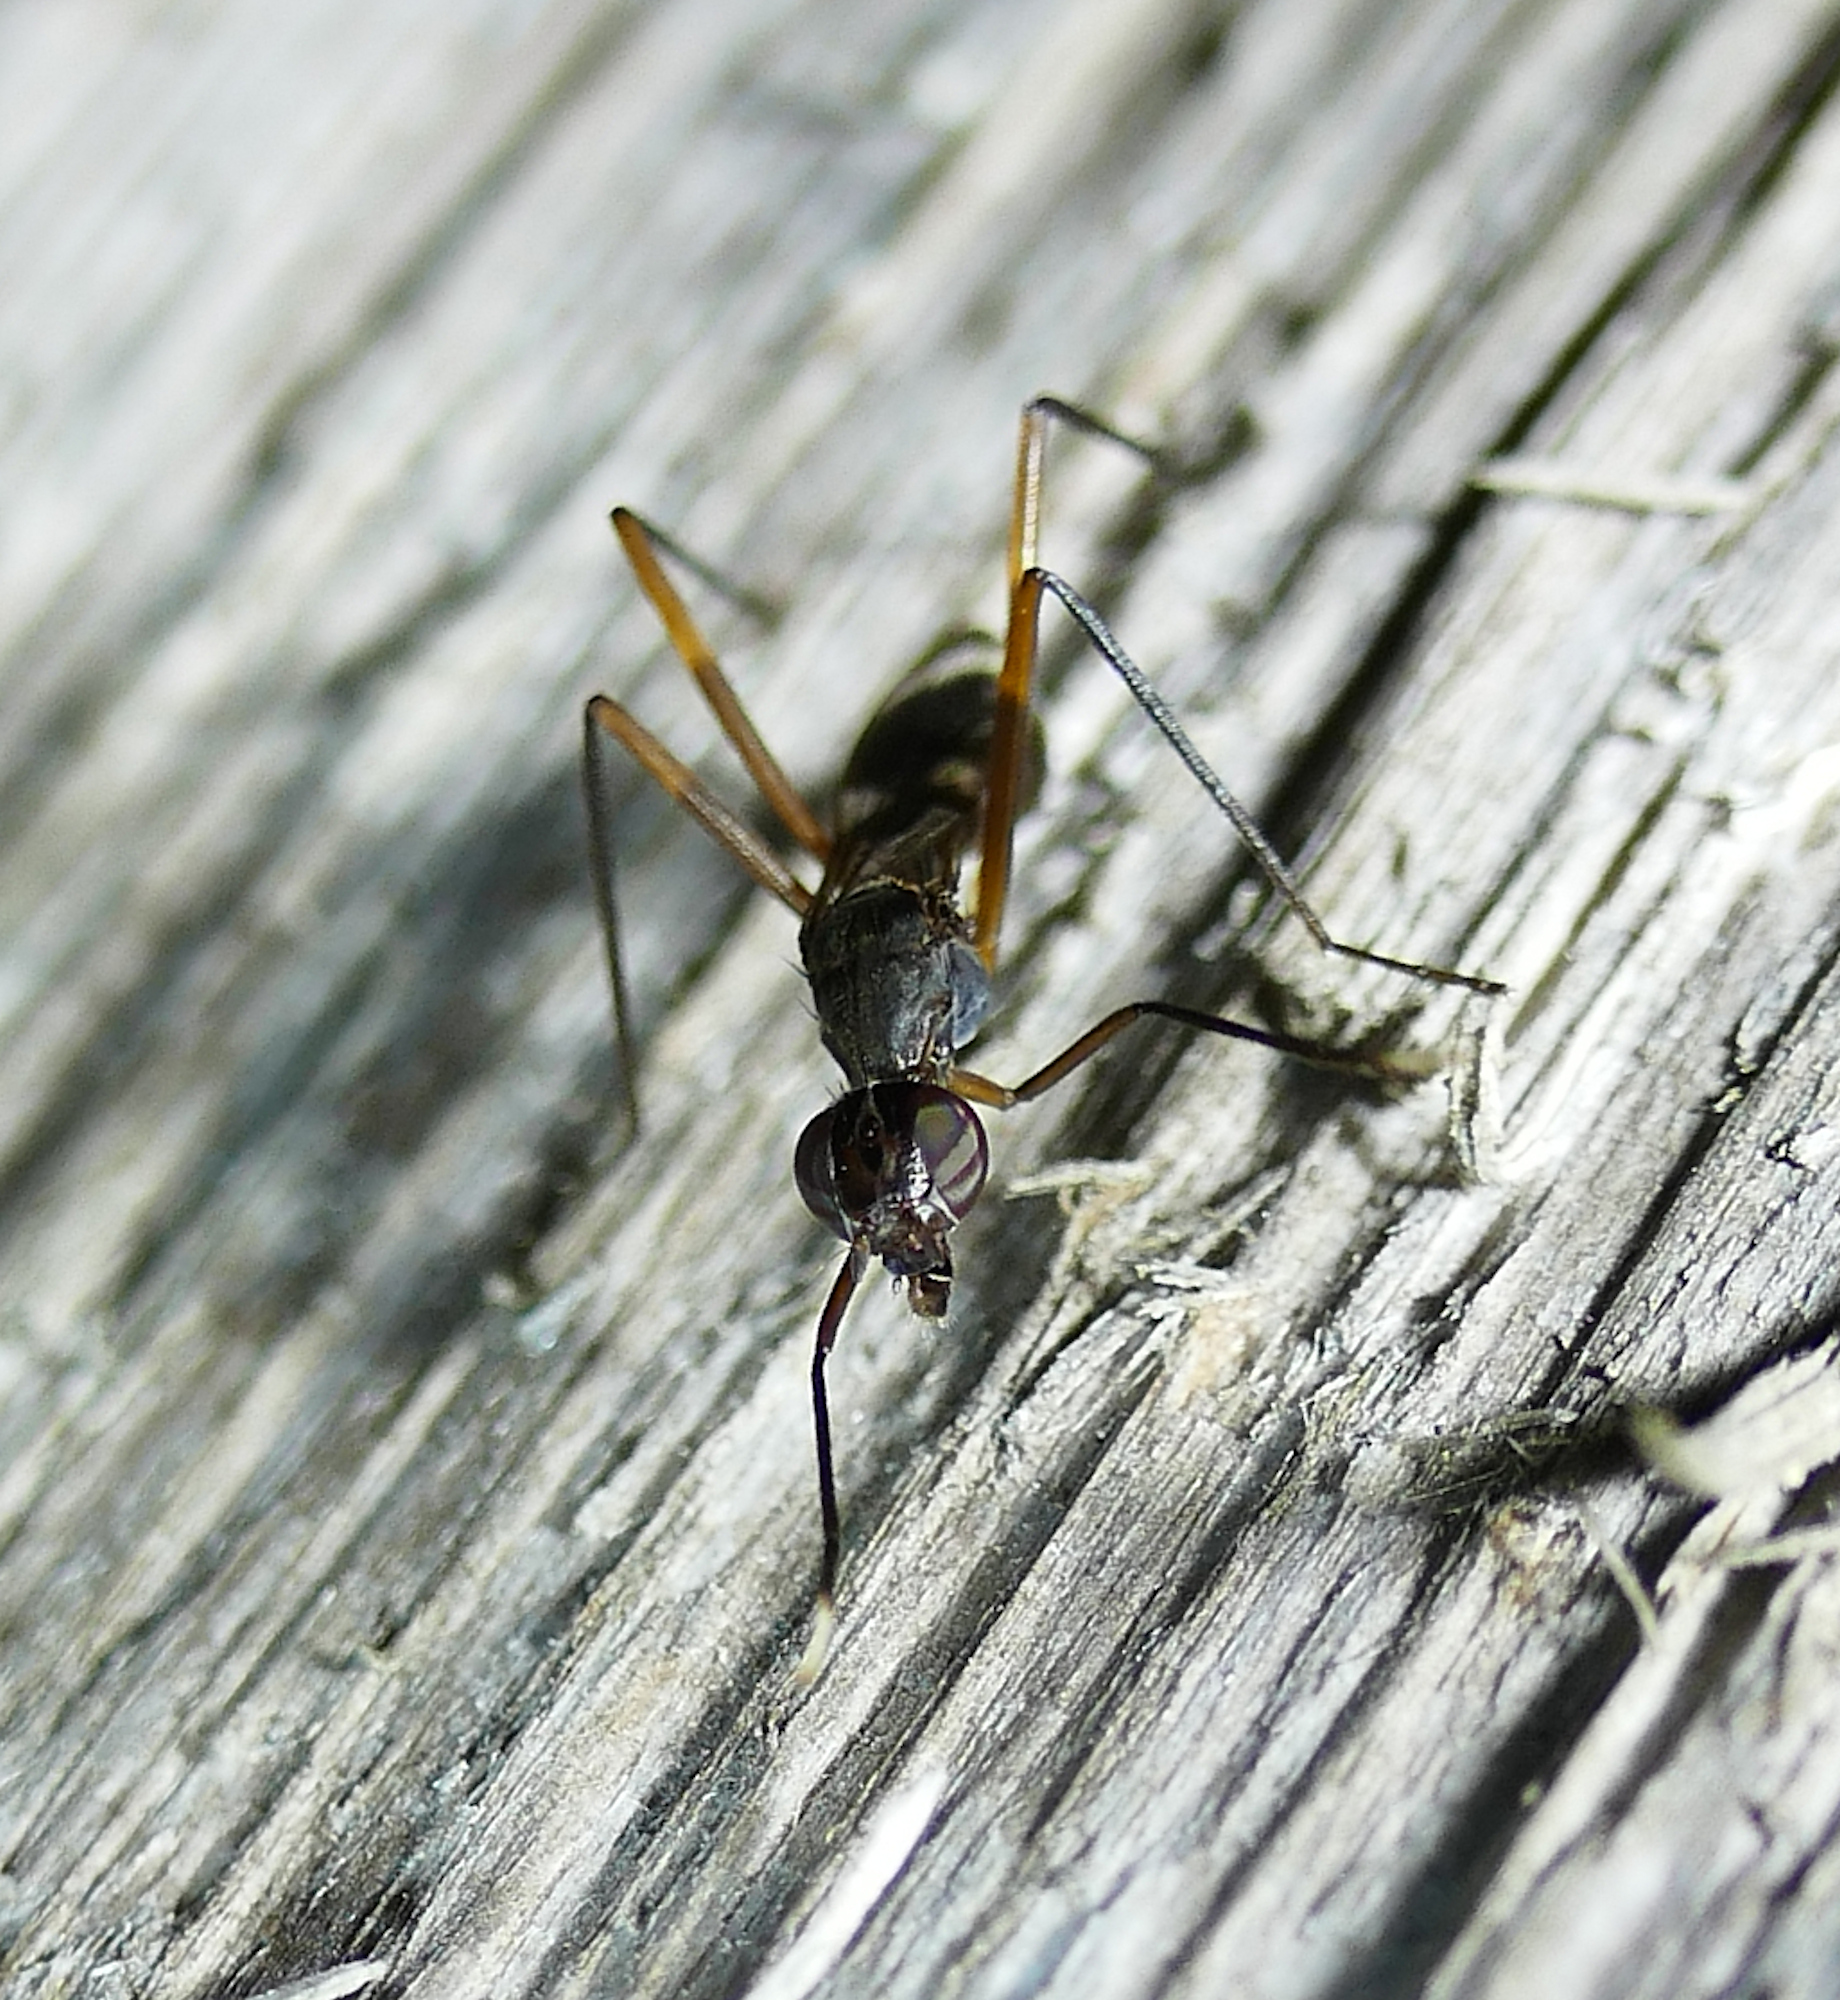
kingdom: Animalia
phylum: Arthropoda
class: Insecta
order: Diptera
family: Micropezidae
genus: Taeniaptera
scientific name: Taeniaptera trivittata
